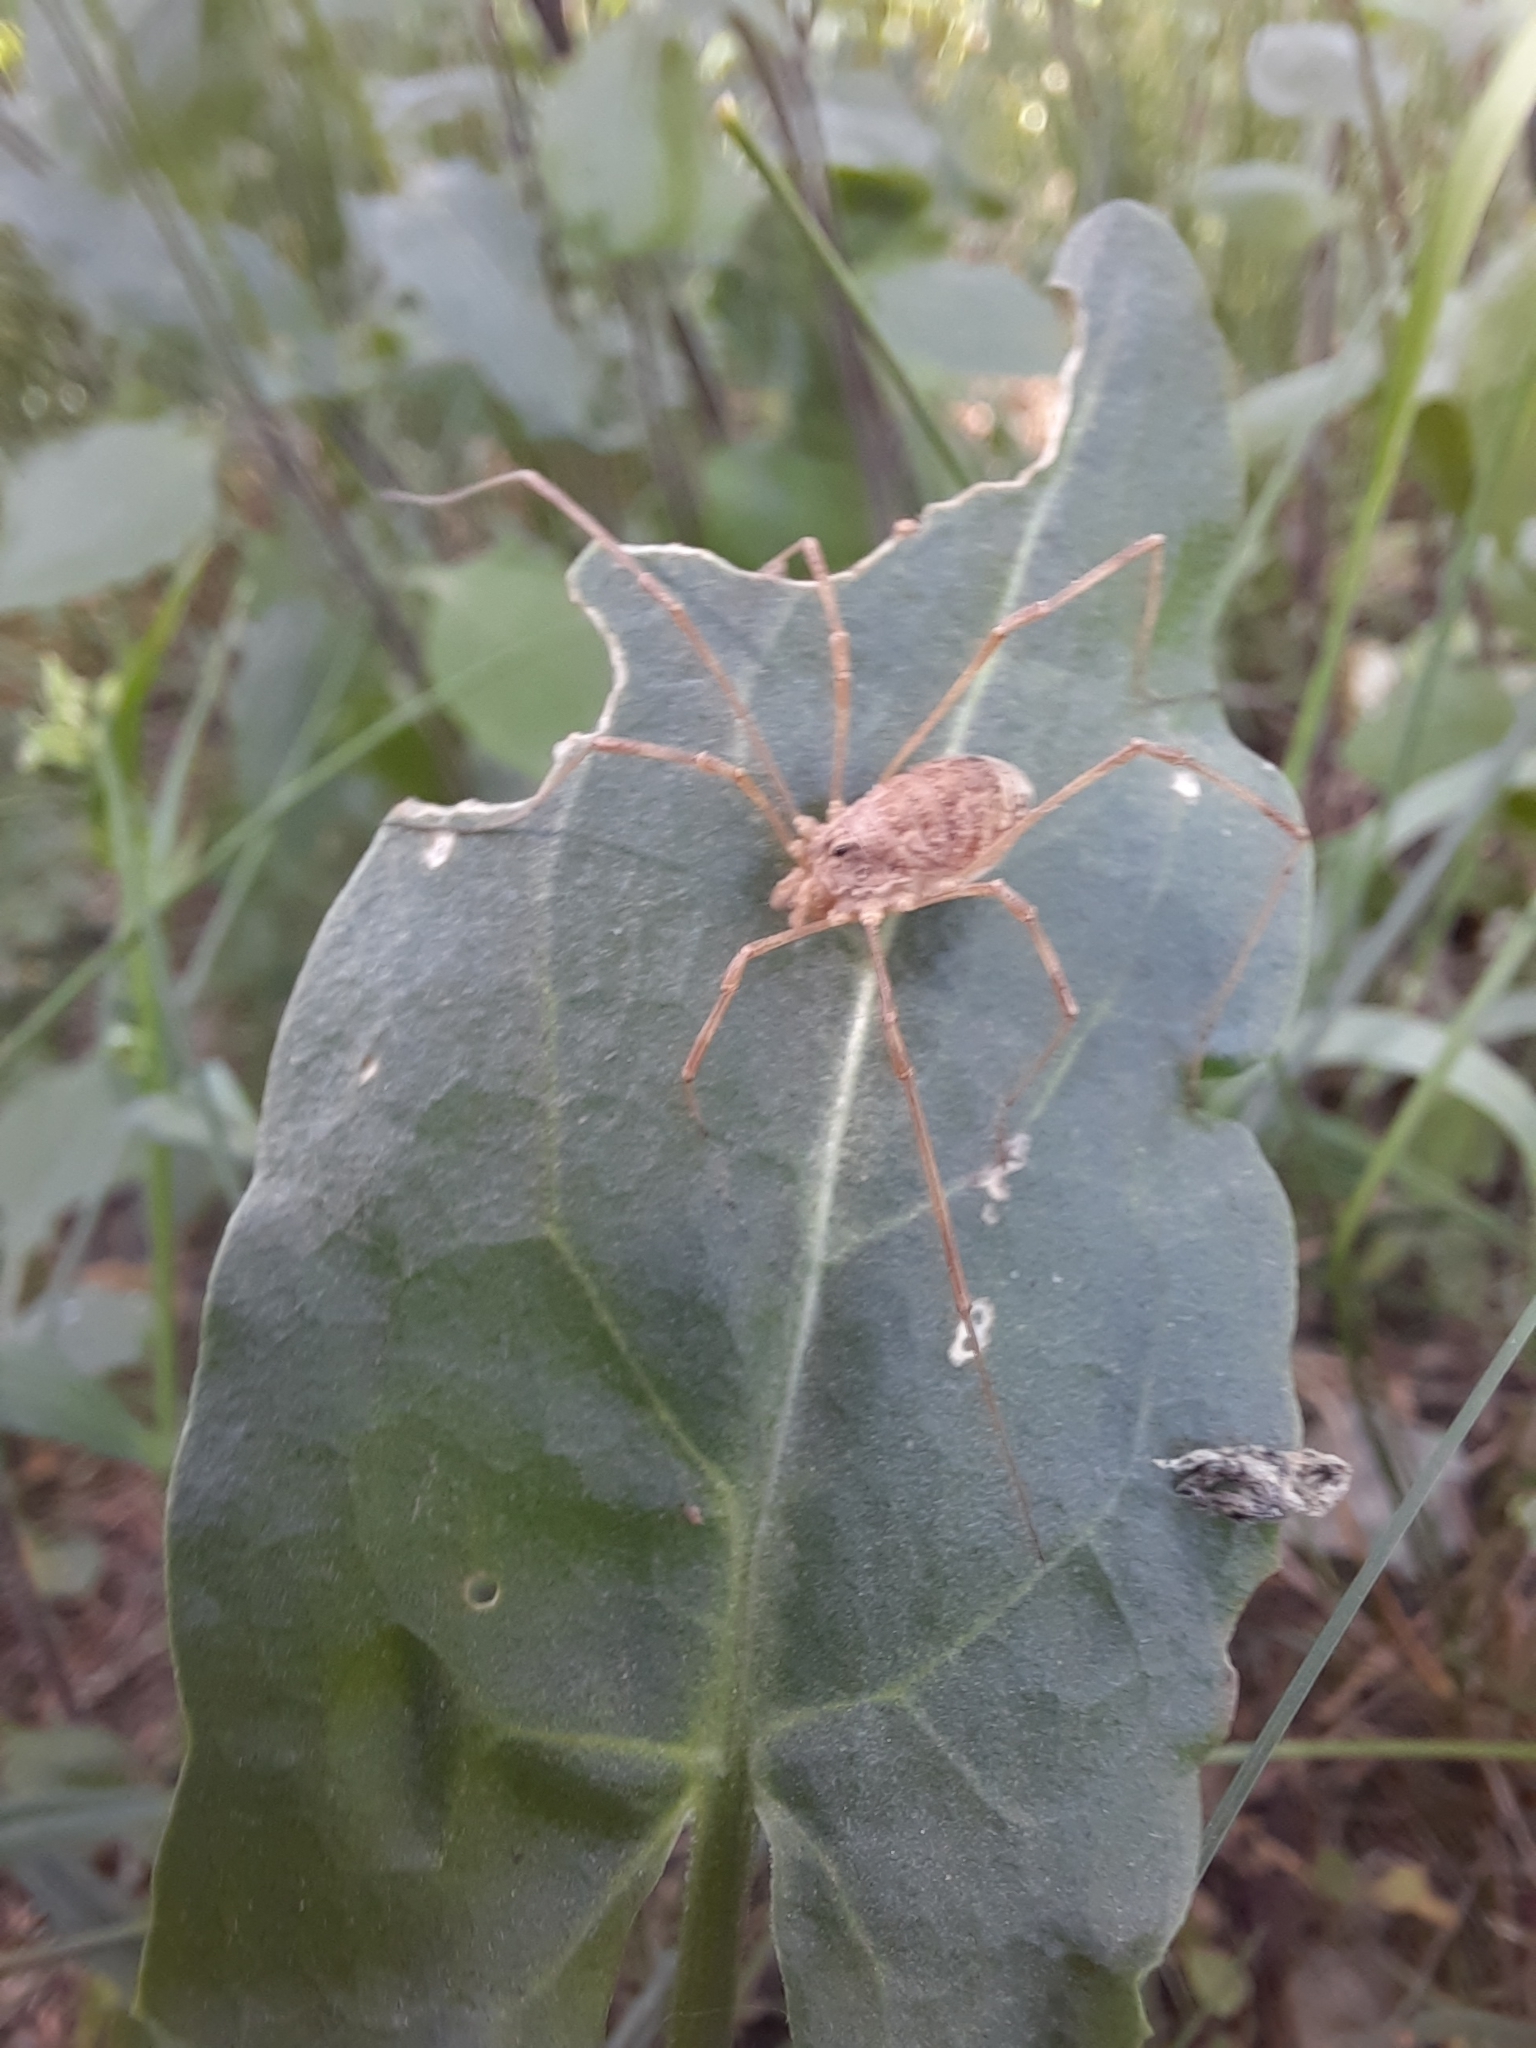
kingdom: Animalia
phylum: Arthropoda
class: Arachnida
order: Opiliones
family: Phalangiidae
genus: Rilaena
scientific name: Rilaena triangularis
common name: Spring harvestman
